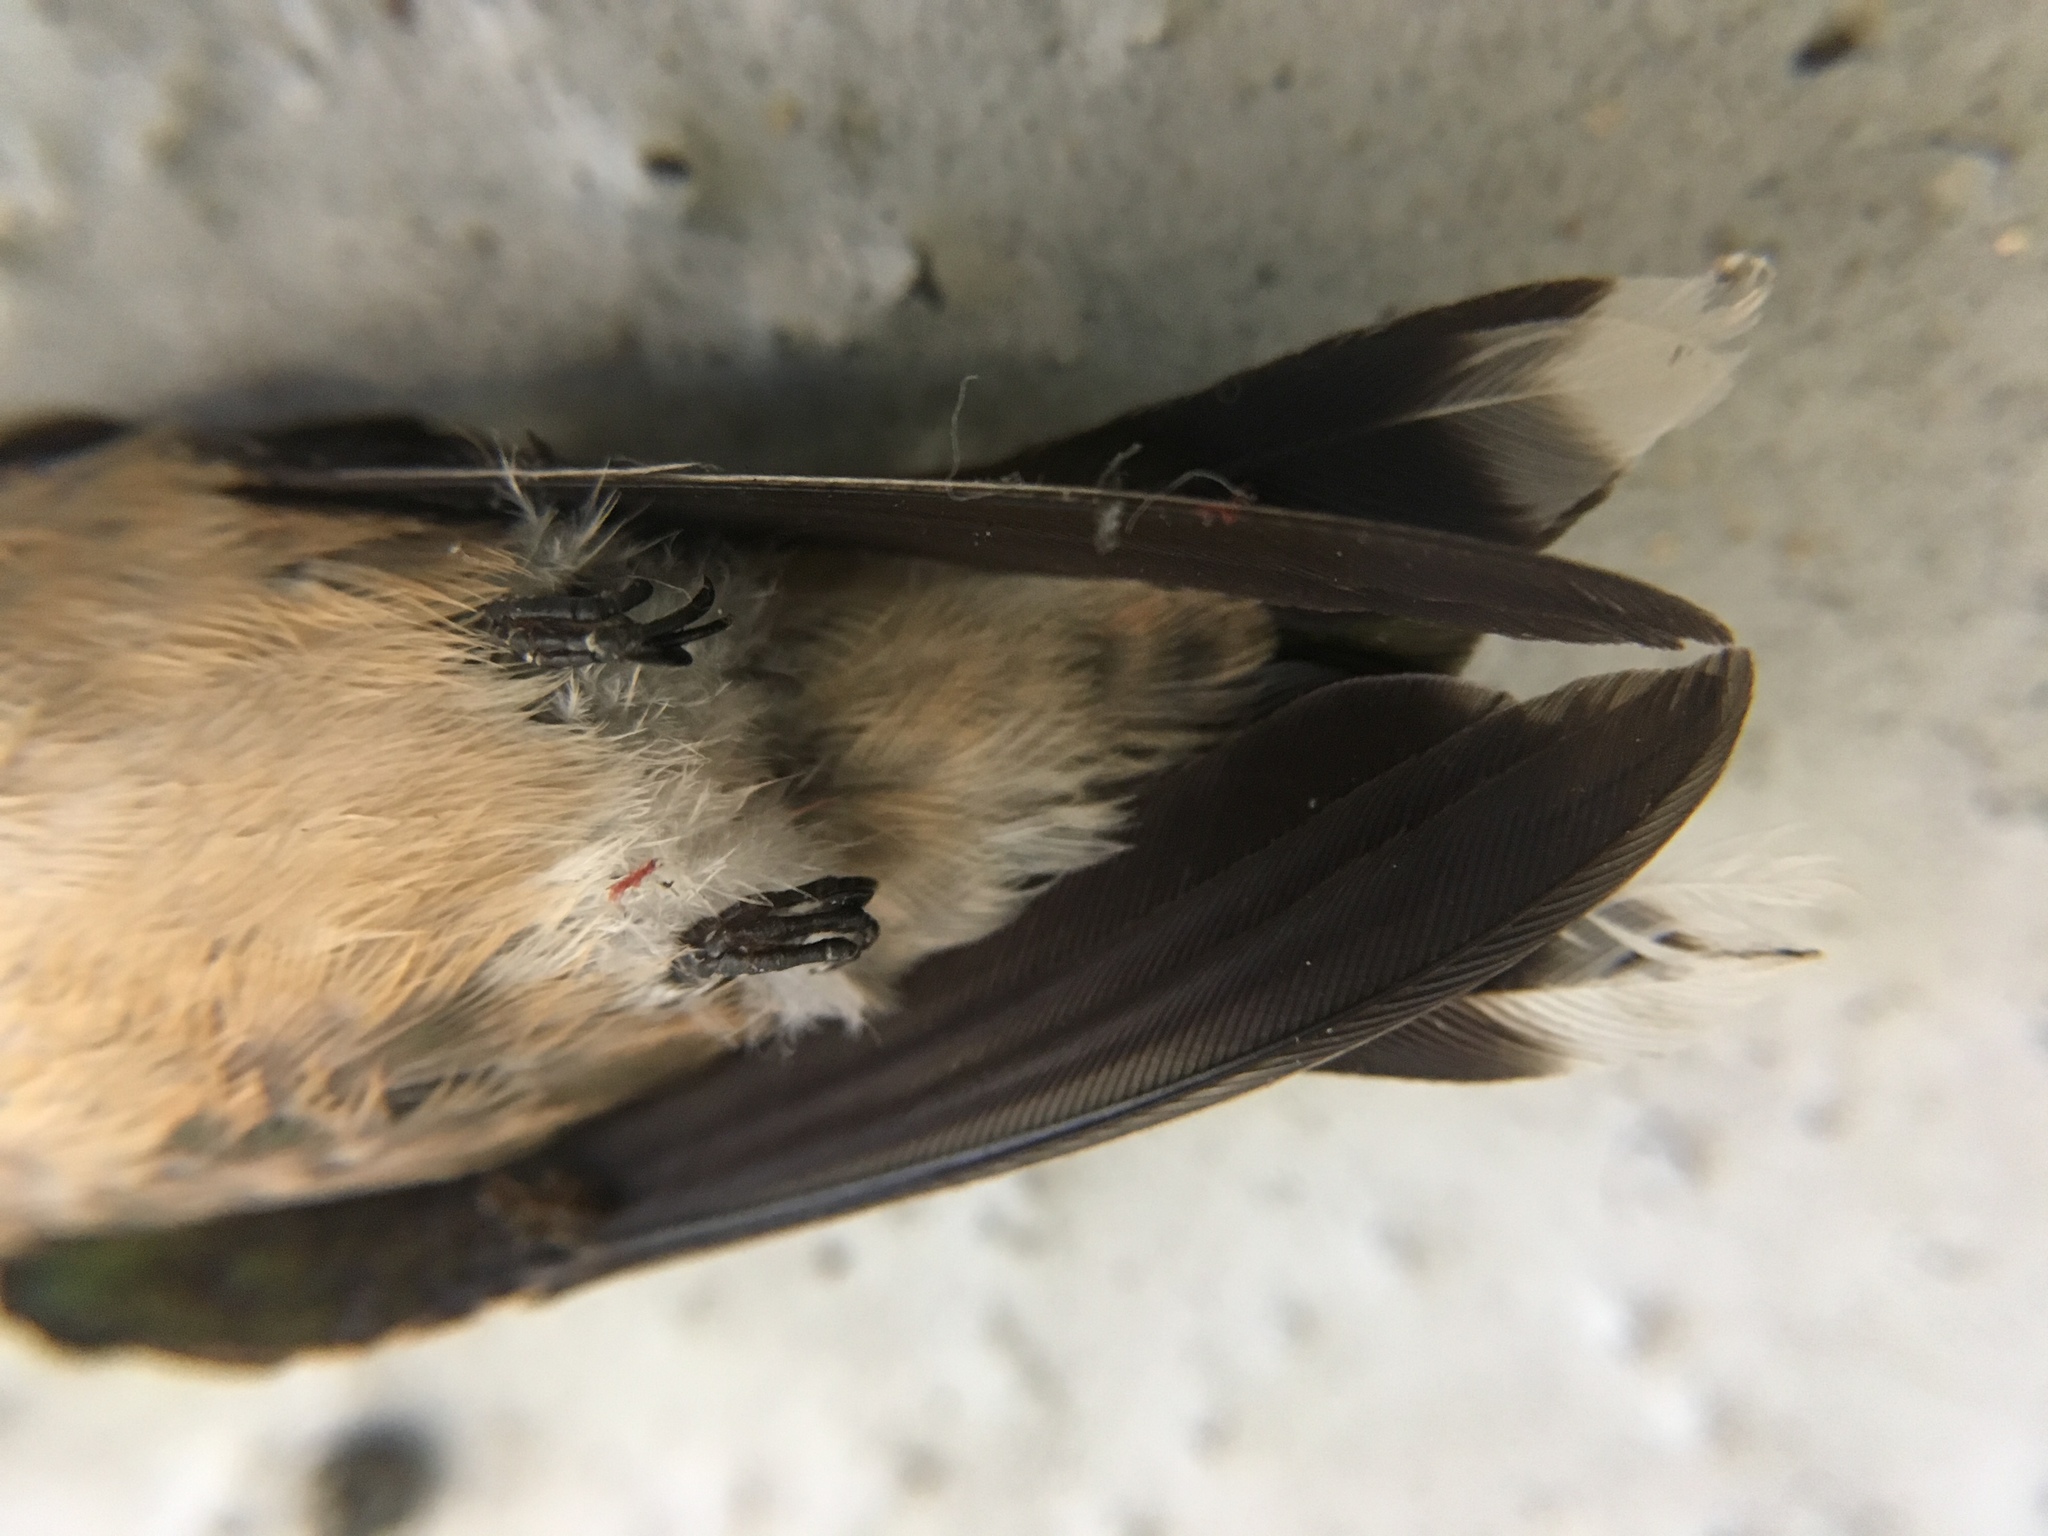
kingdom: Animalia
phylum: Chordata
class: Aves
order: Apodiformes
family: Trochilidae
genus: Archilochus
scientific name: Archilochus colubris
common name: Ruby-throated hummingbird
